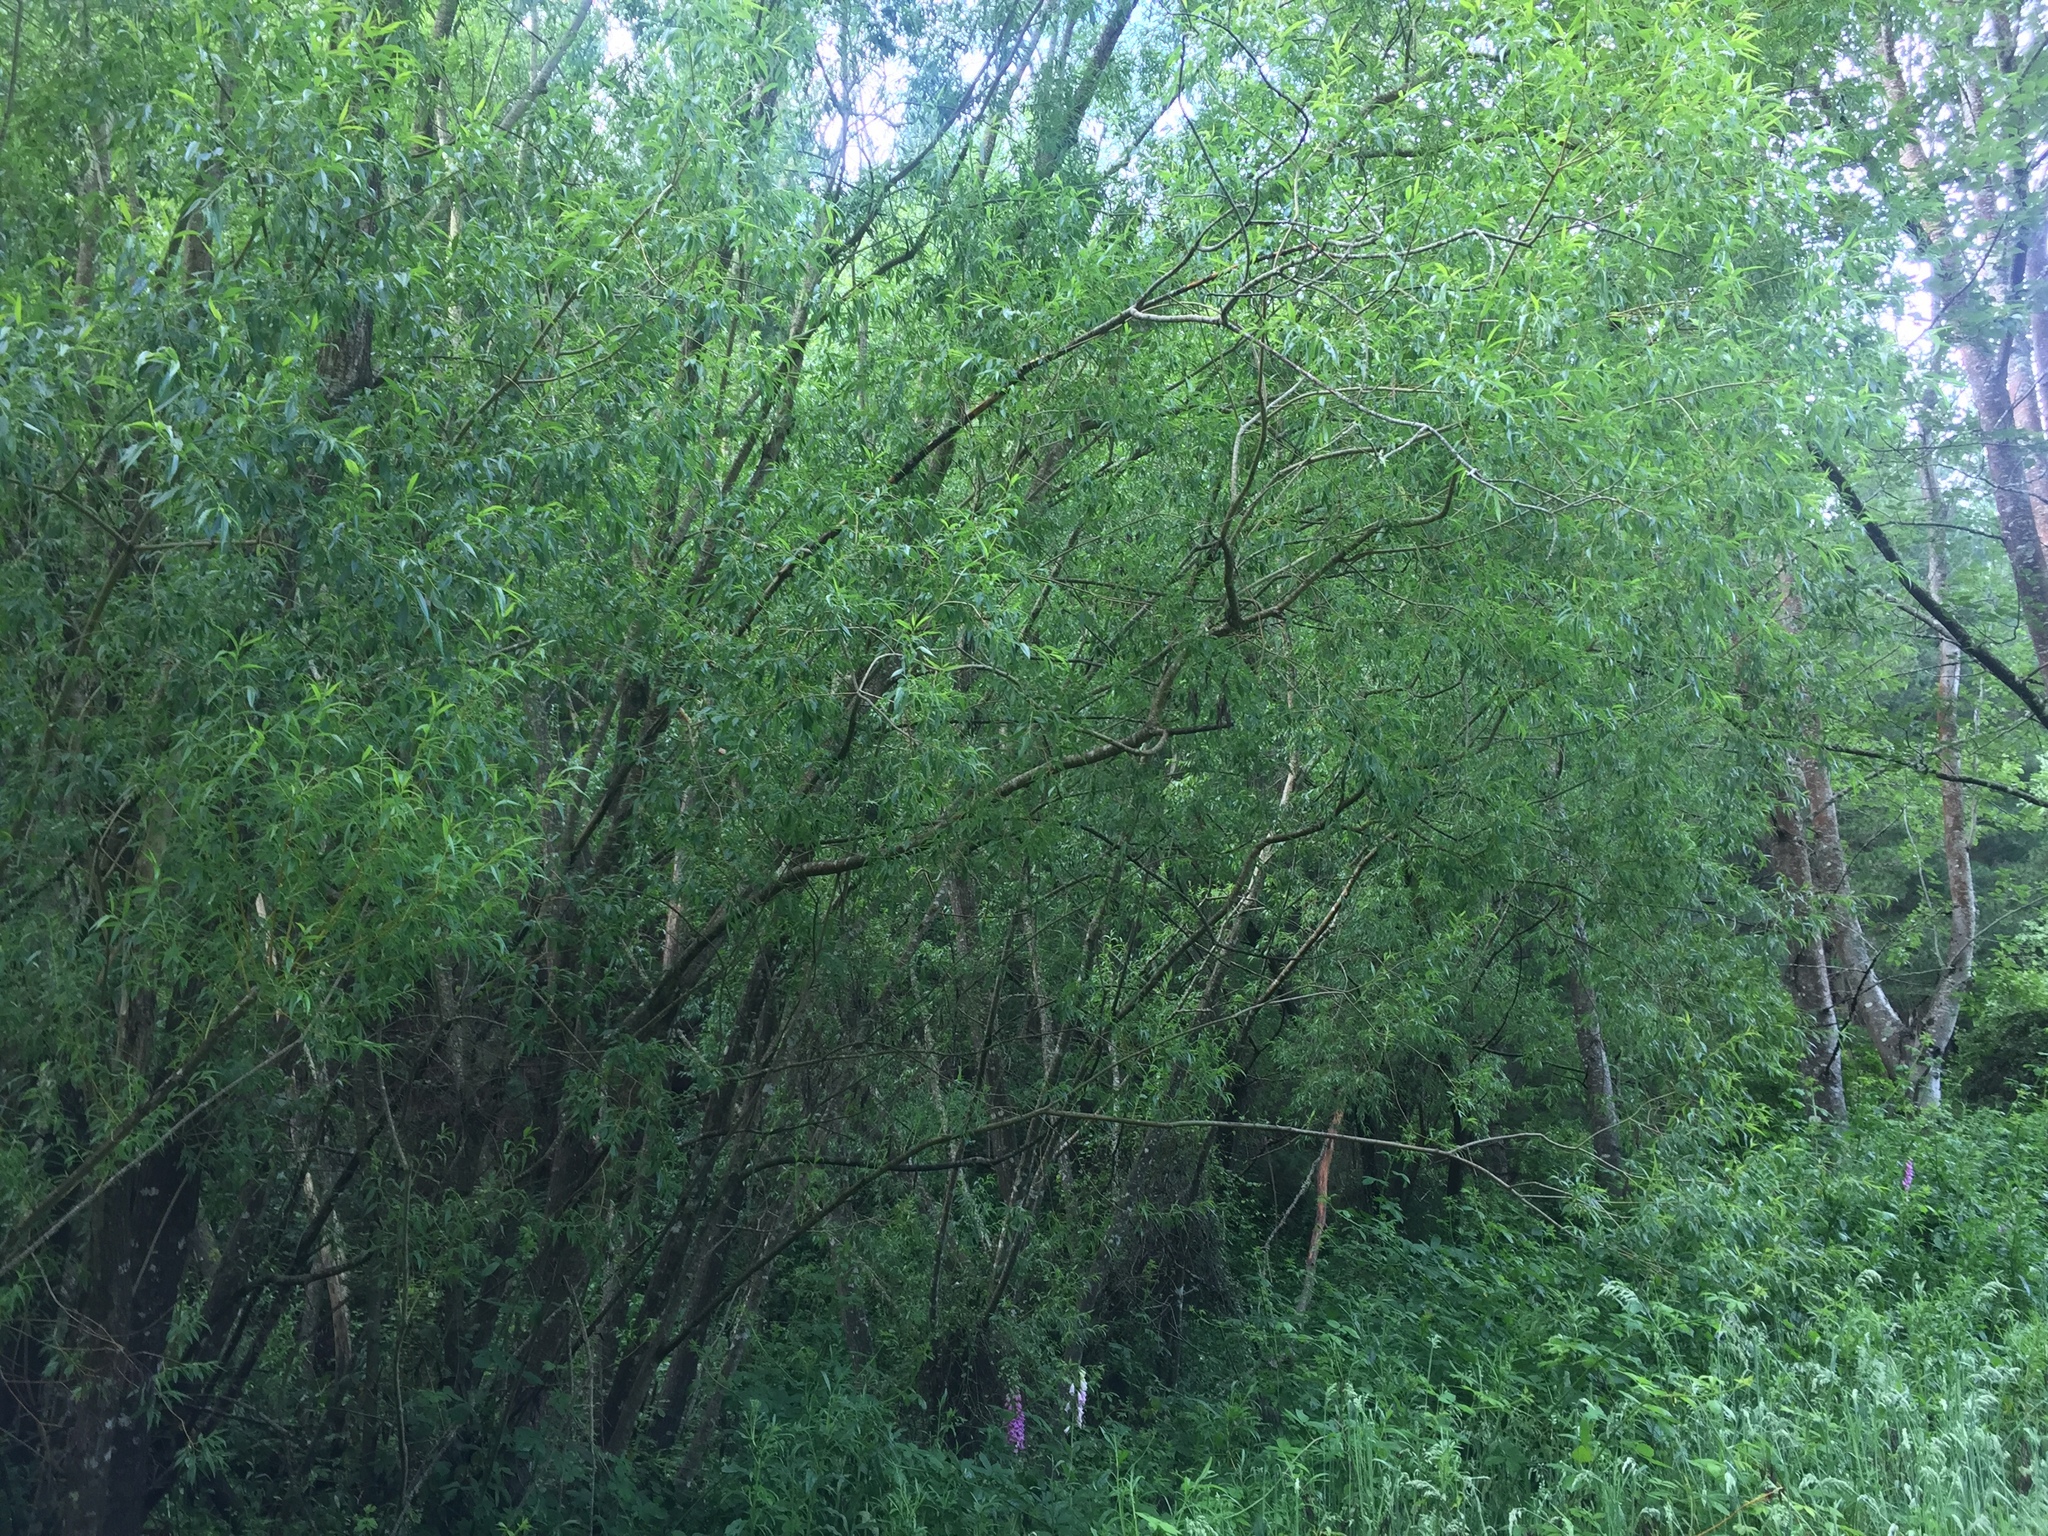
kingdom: Plantae
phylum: Tracheophyta
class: Magnoliopsida
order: Malpighiales
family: Salicaceae
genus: Salix
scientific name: Salix fragilis
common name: Crack willow
